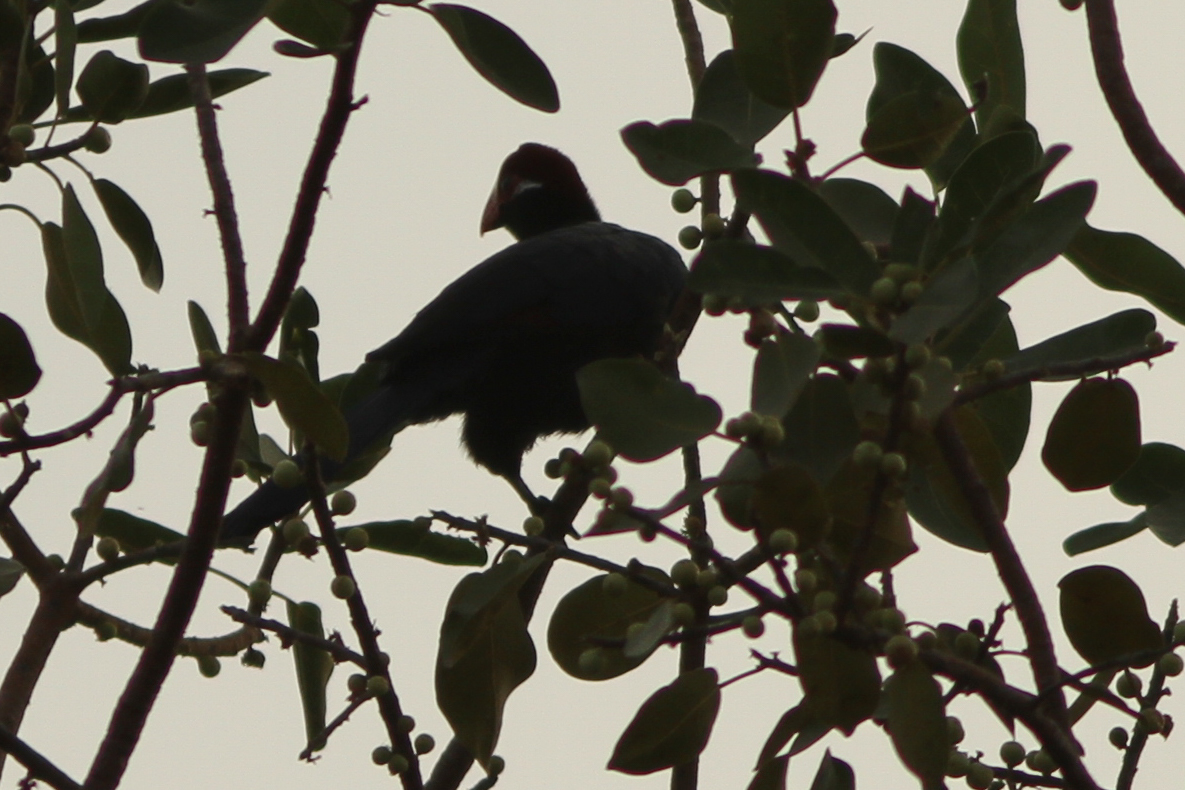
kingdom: Animalia
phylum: Chordata
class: Aves
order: Musophagiformes
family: Musophagidae
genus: Musophaga
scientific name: Musophaga violacea
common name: Violet turaco
